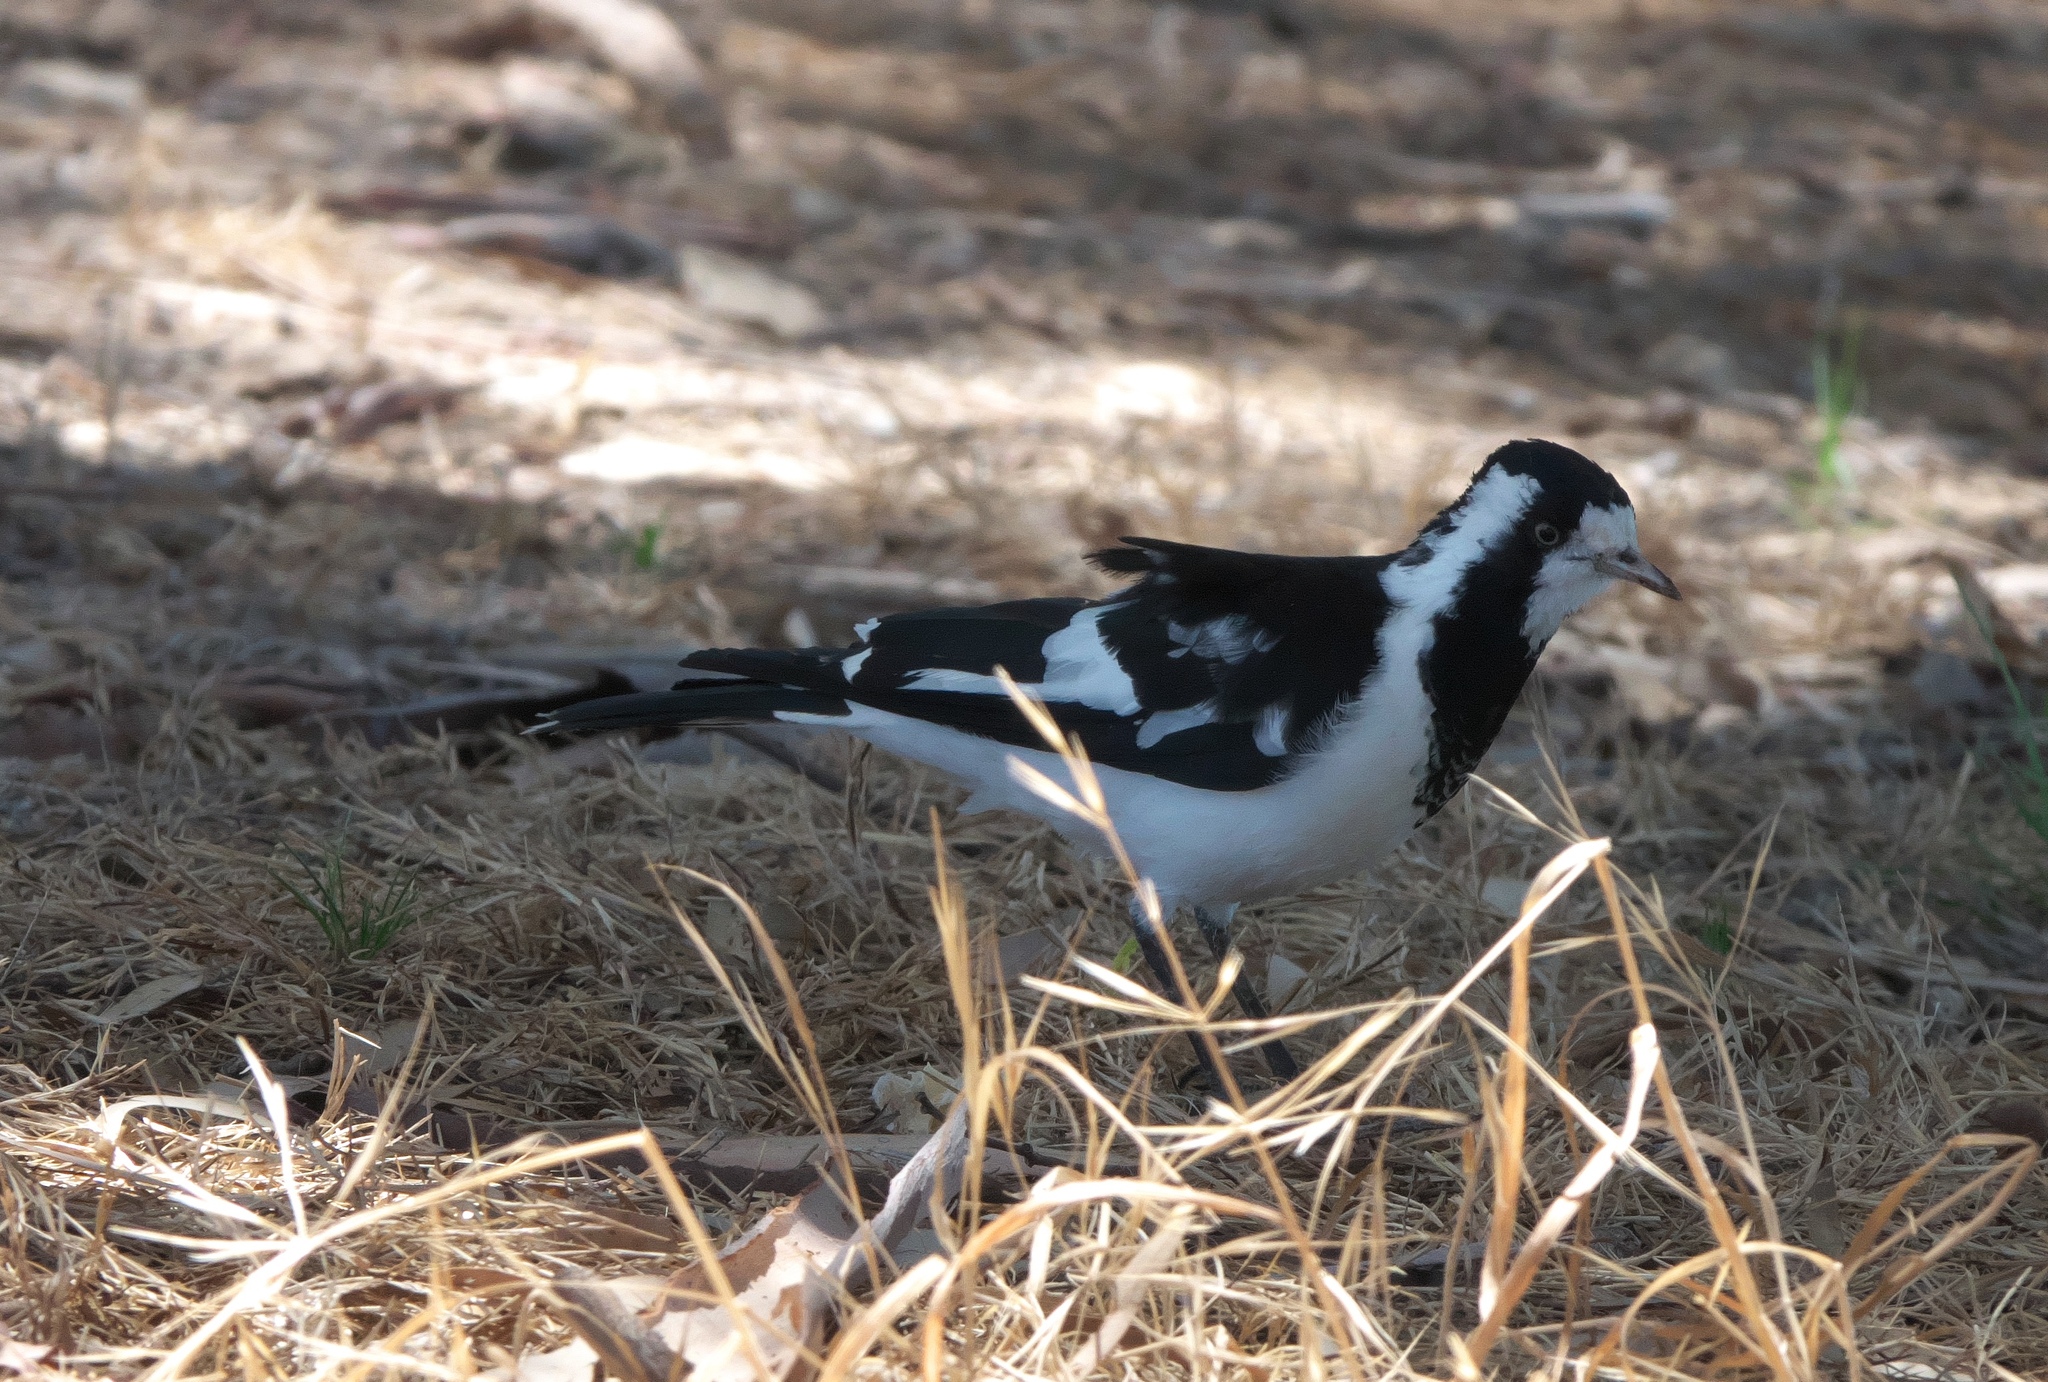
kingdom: Animalia
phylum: Chordata
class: Aves
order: Passeriformes
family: Monarchidae
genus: Grallina
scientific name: Grallina cyanoleuca
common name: Magpie-lark
